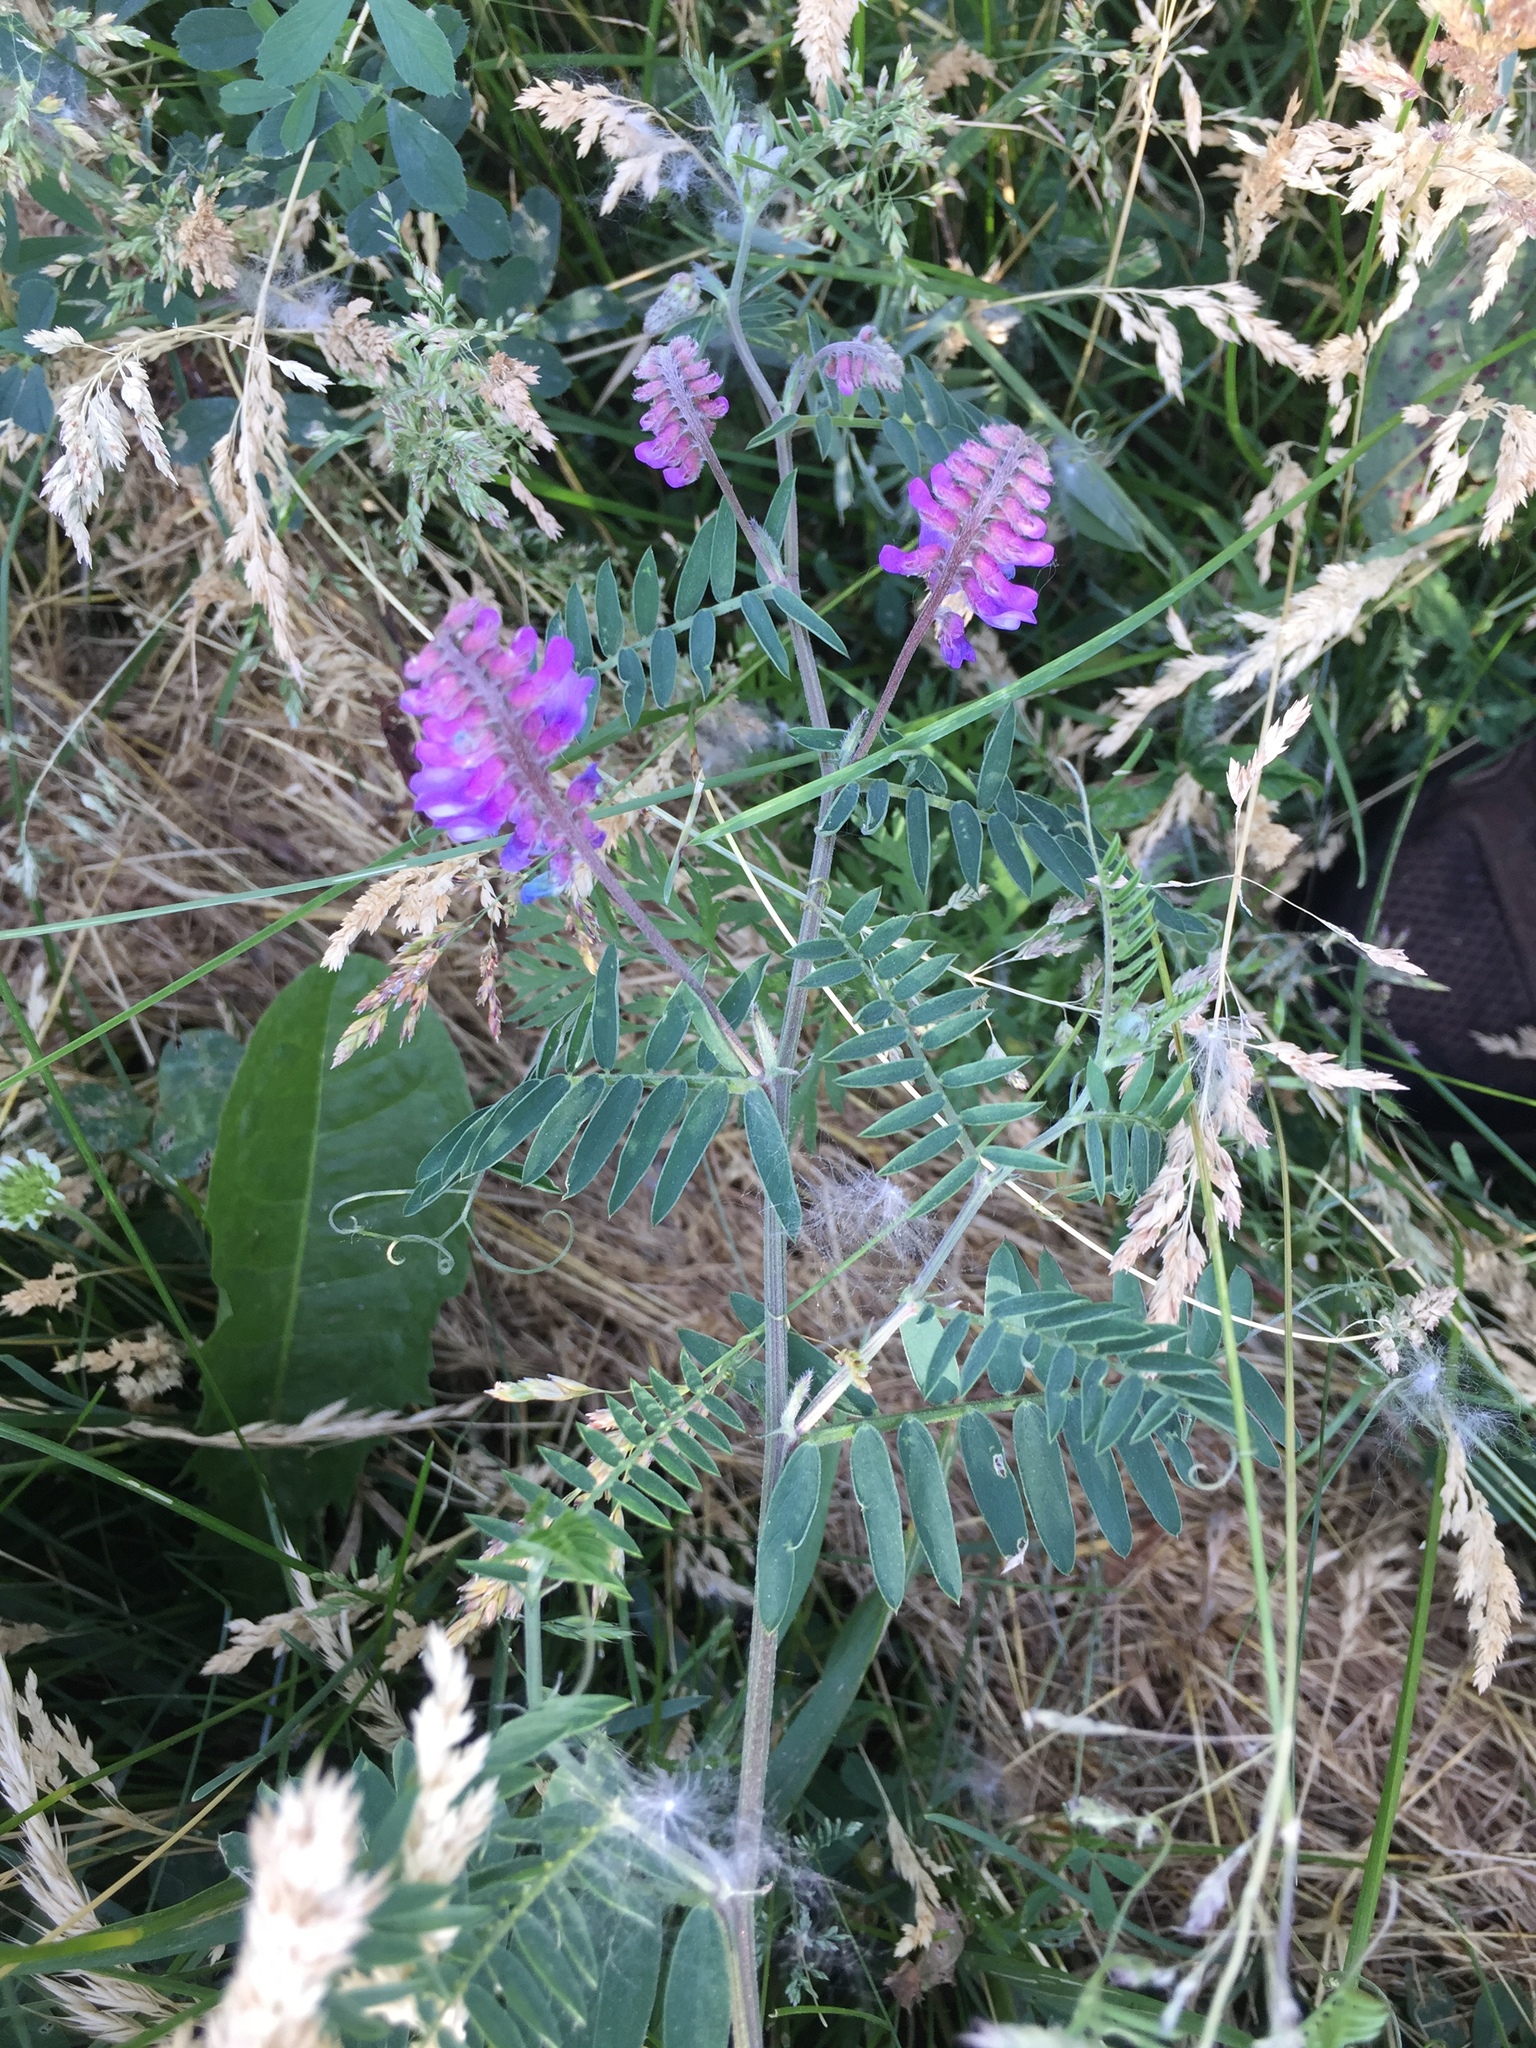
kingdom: Plantae
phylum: Tracheophyta
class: Magnoliopsida
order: Fabales
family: Fabaceae
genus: Vicia
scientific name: Vicia cracca
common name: Bird vetch
